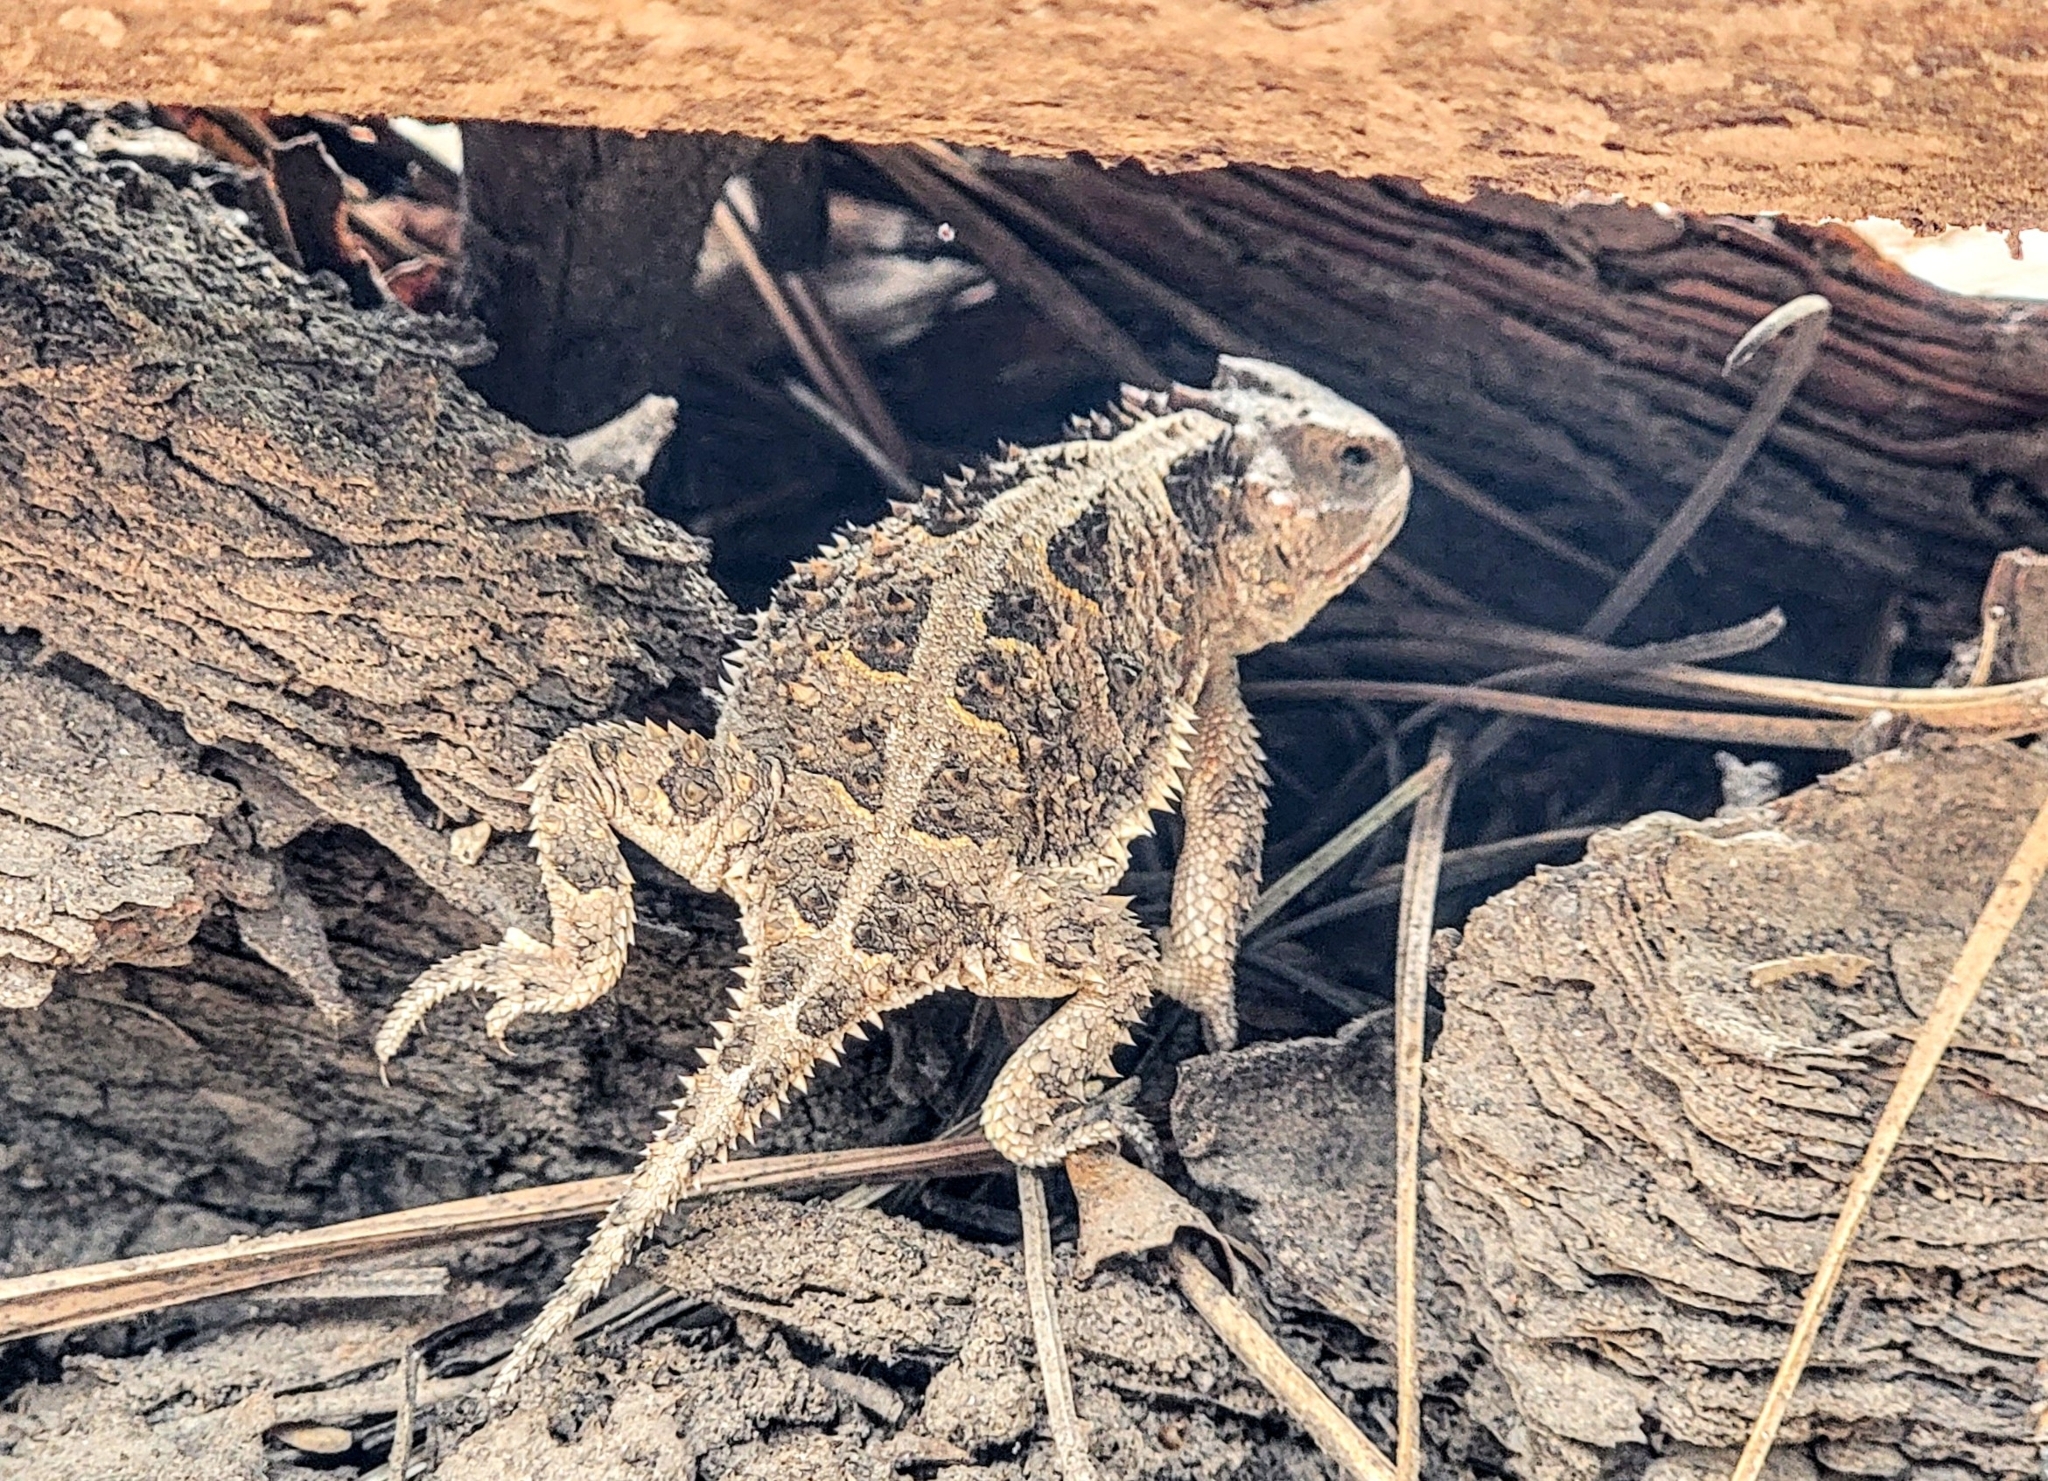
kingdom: Animalia
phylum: Chordata
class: Squamata
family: Phrynosomatidae
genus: Phrynosoma
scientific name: Phrynosoma hernandesi
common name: Greater short-horned lizard
